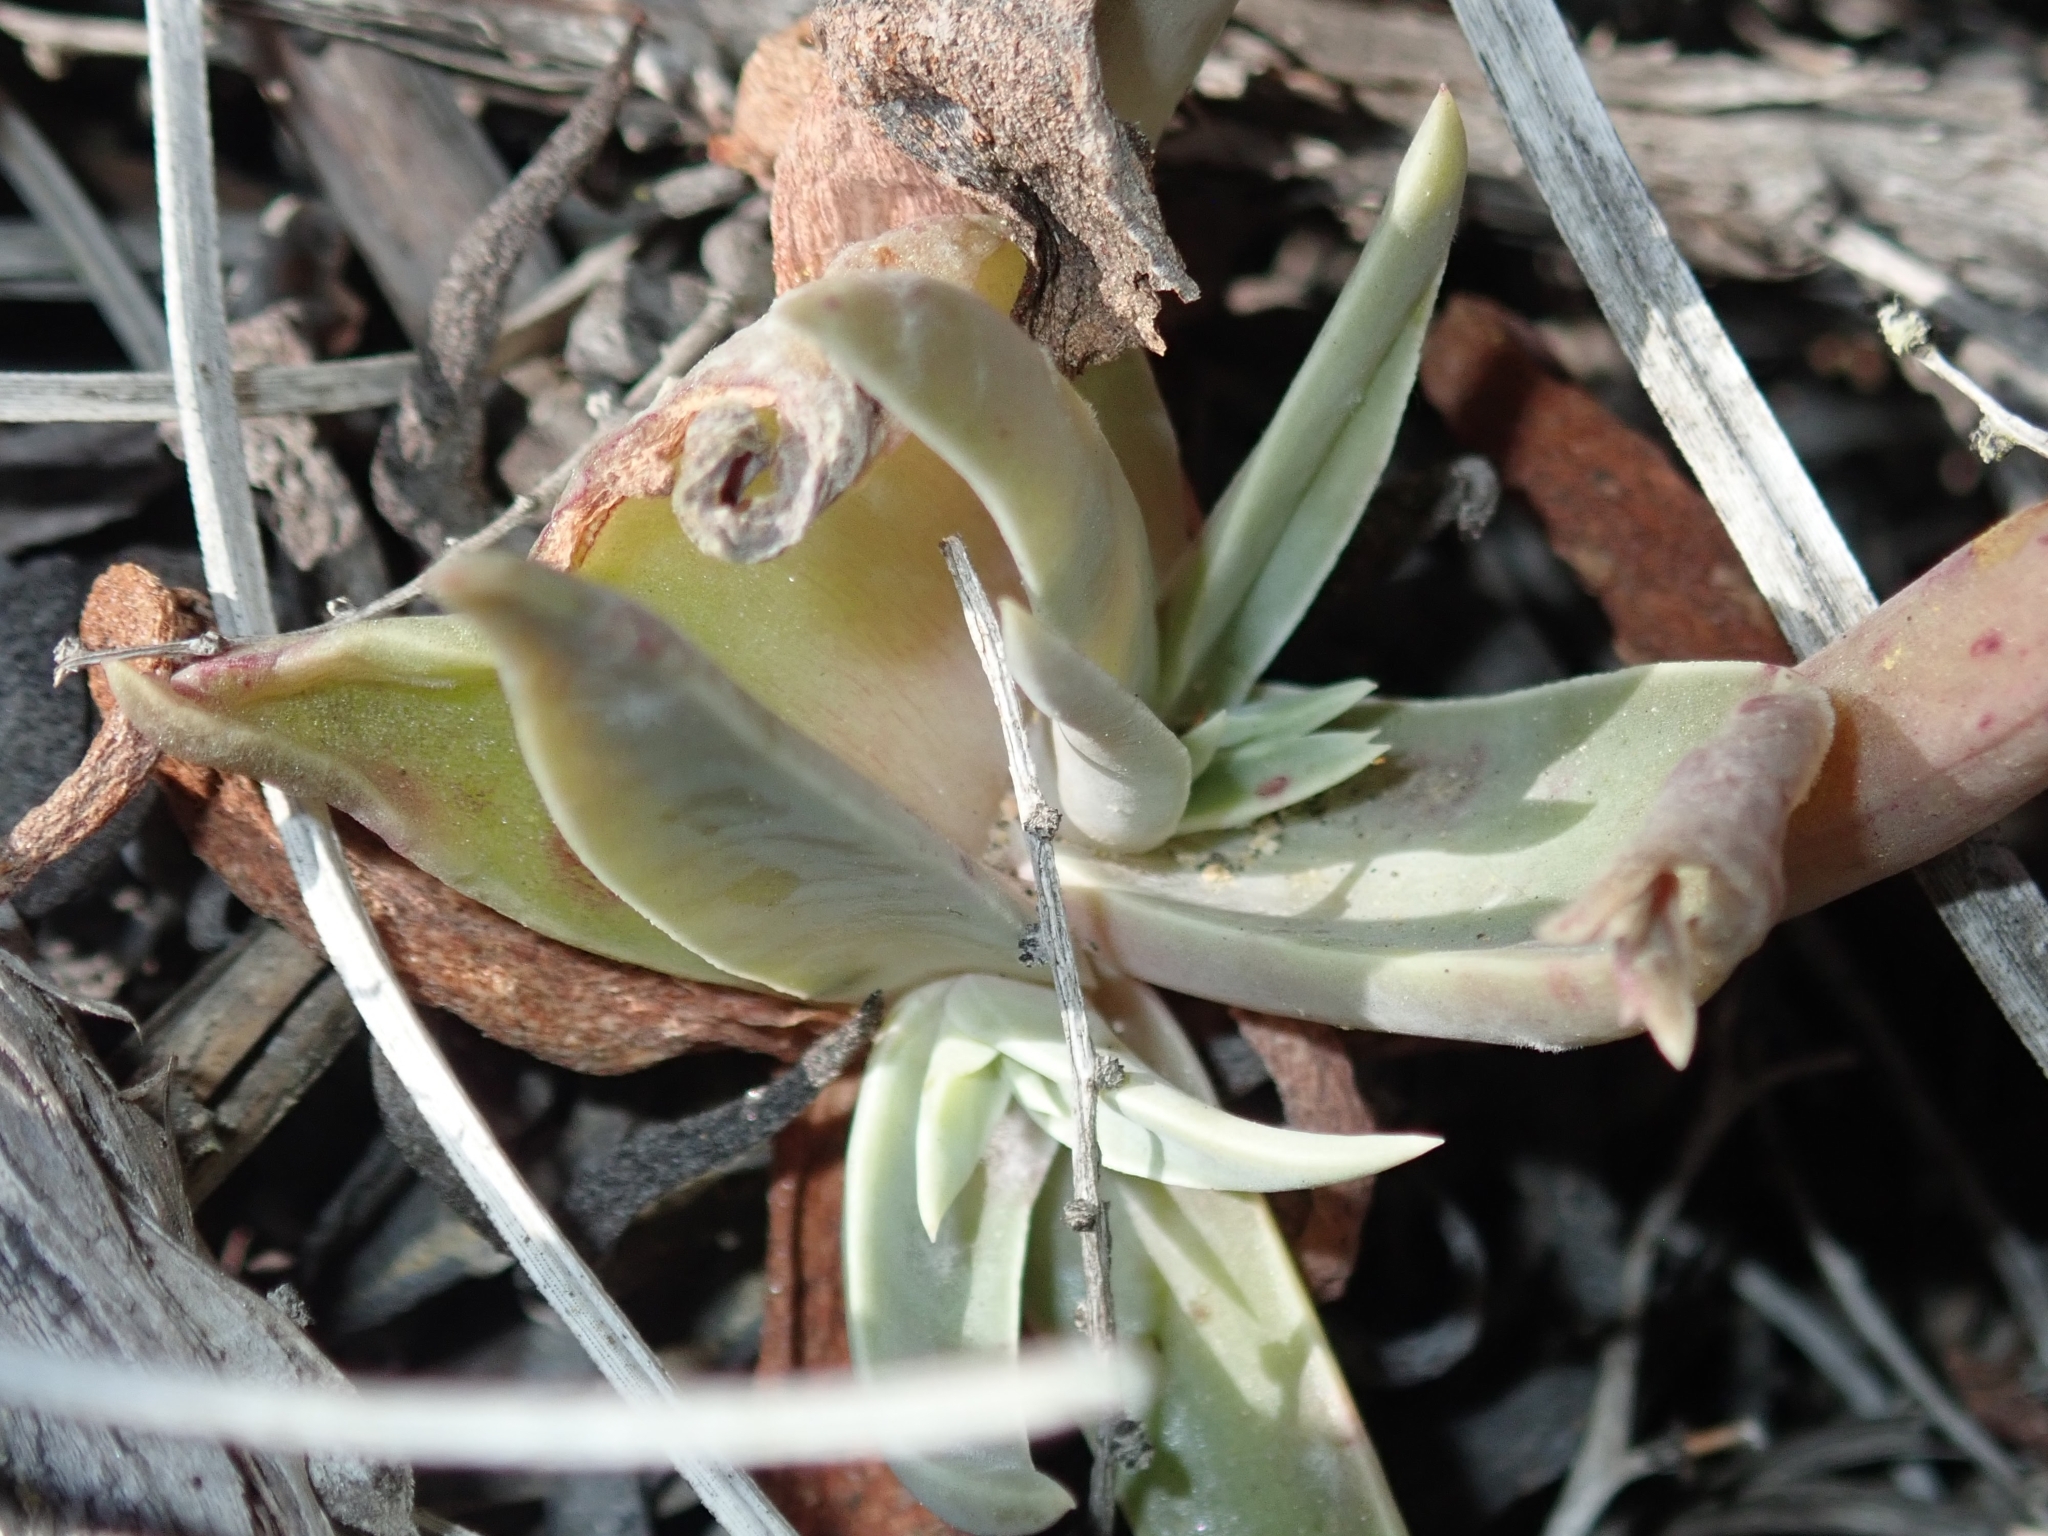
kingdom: Plantae
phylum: Tracheophyta
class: Magnoliopsida
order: Saxifragales
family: Crassulaceae
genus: Dudleya
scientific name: Dudleya lanceolata
